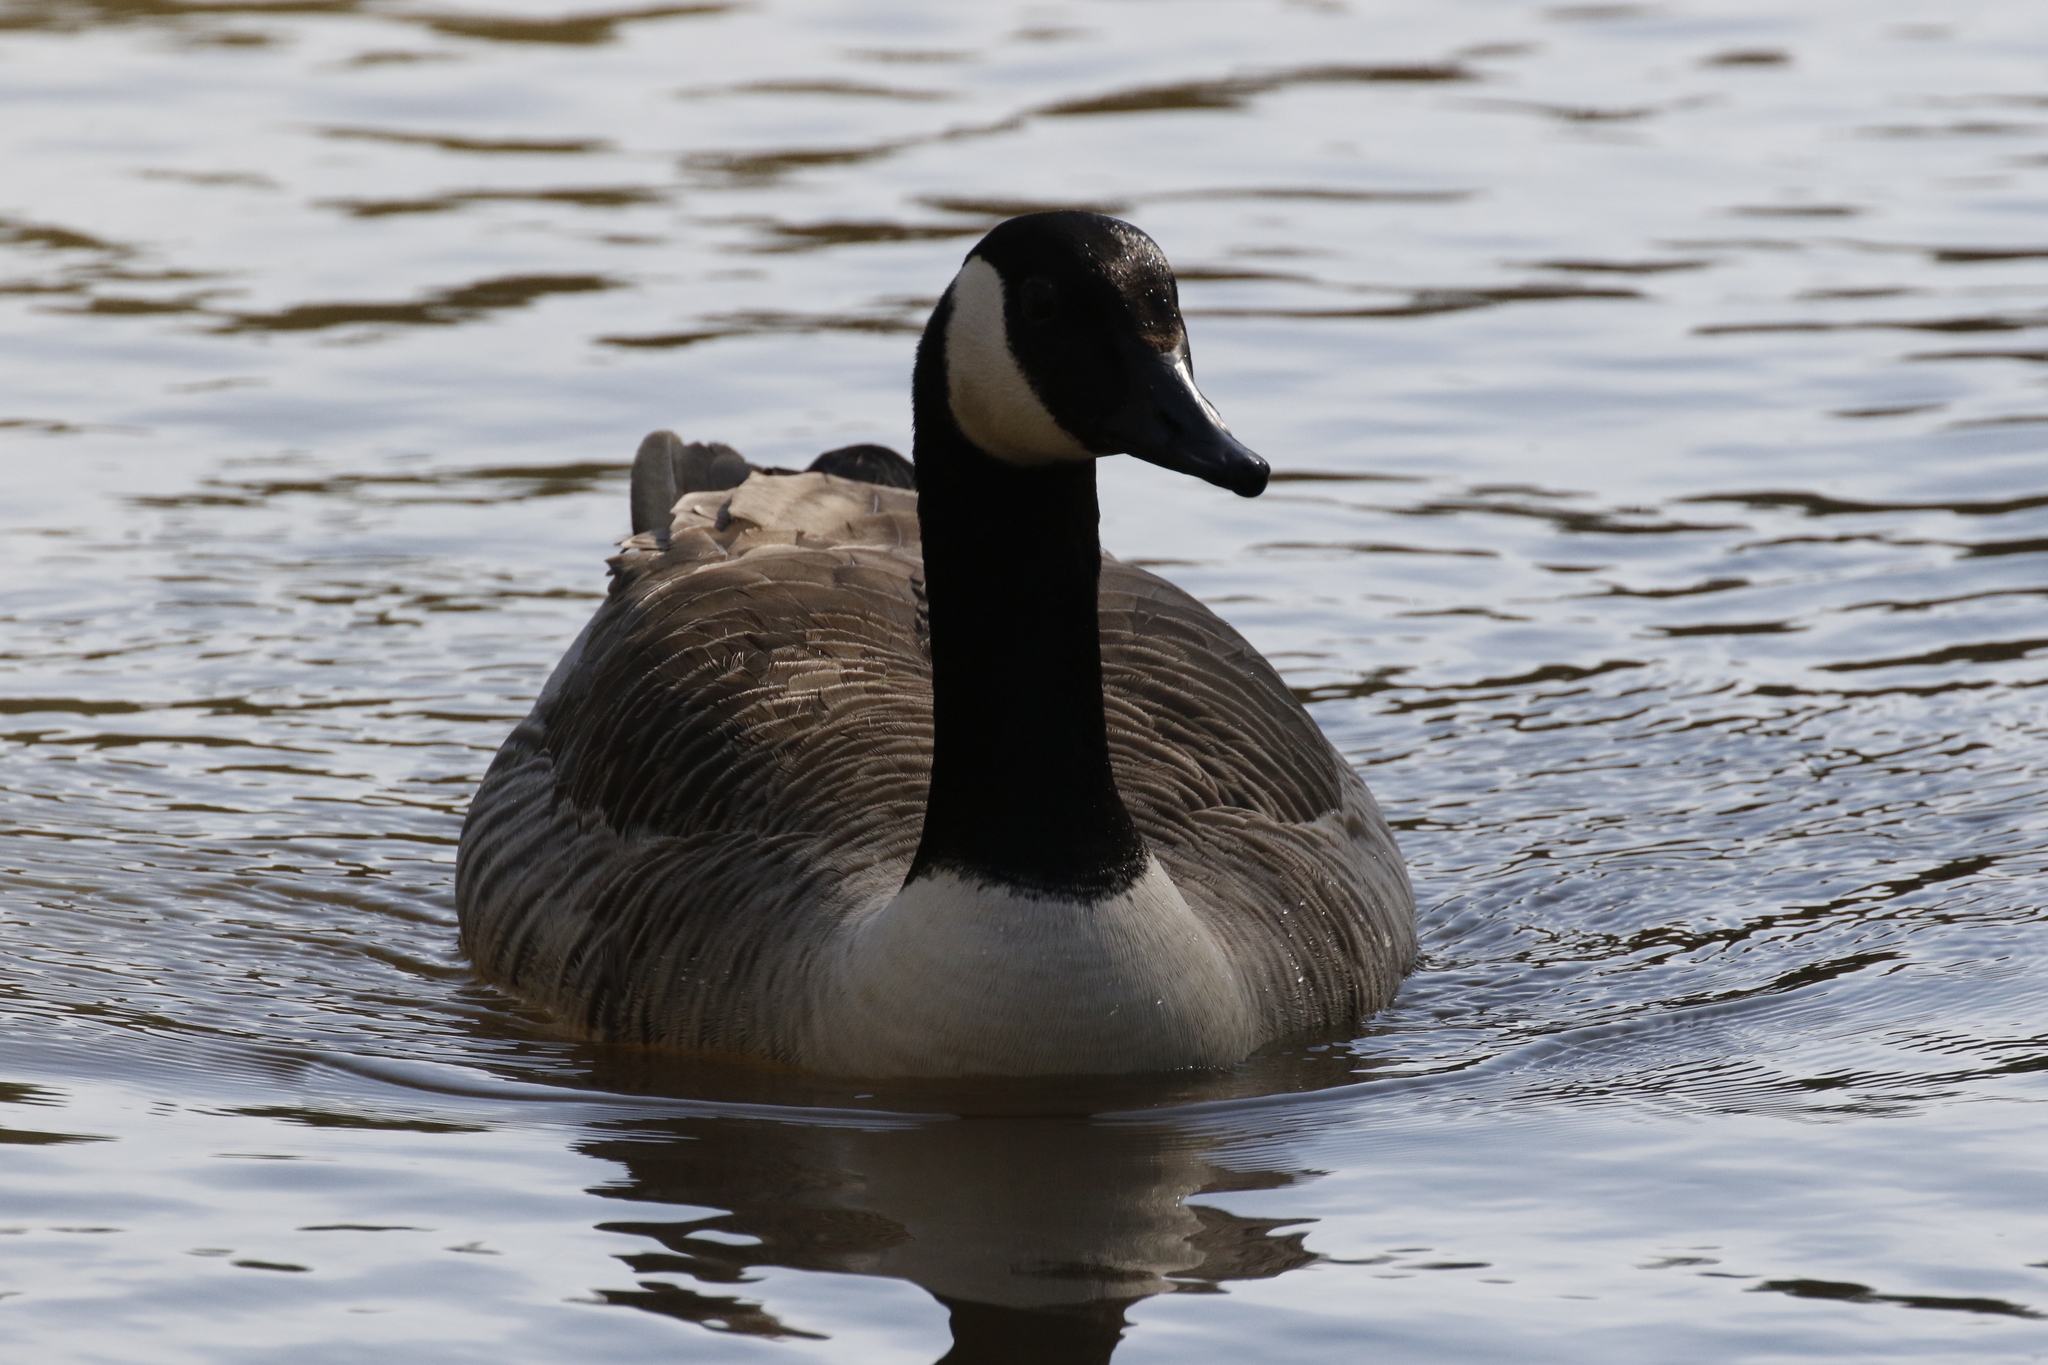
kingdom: Animalia
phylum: Chordata
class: Aves
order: Anseriformes
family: Anatidae
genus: Branta
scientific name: Branta canadensis
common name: Canada goose
